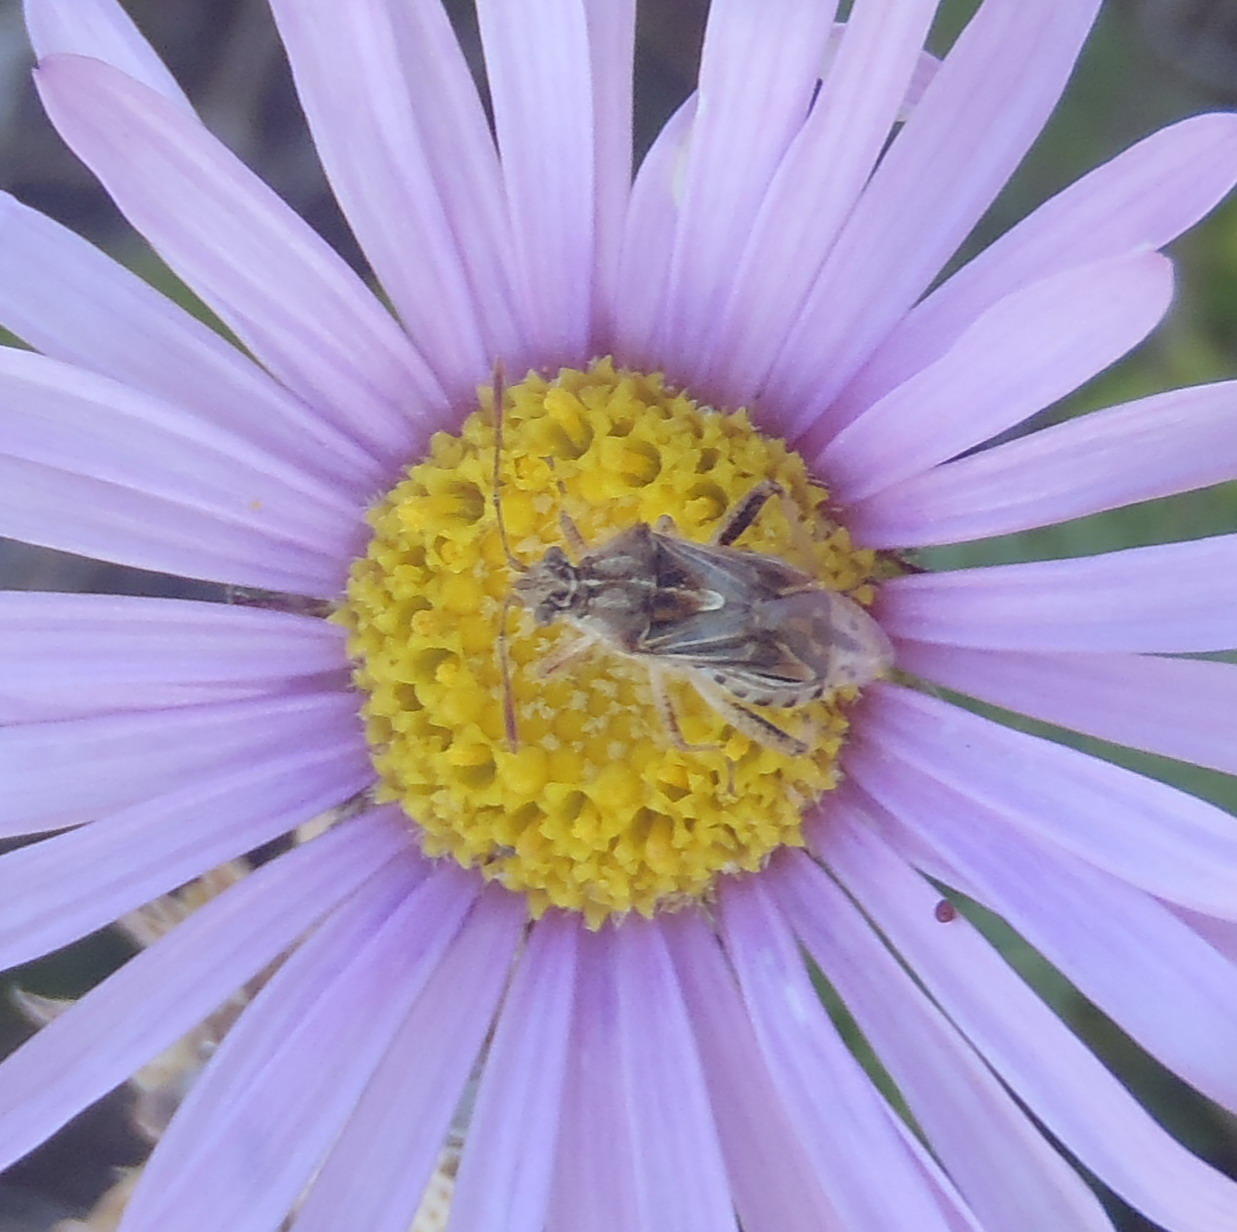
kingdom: Animalia
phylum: Arthropoda
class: Insecta
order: Hemiptera
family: Rhopalidae
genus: Stictopleurus
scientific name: Stictopleurus scutellaris
